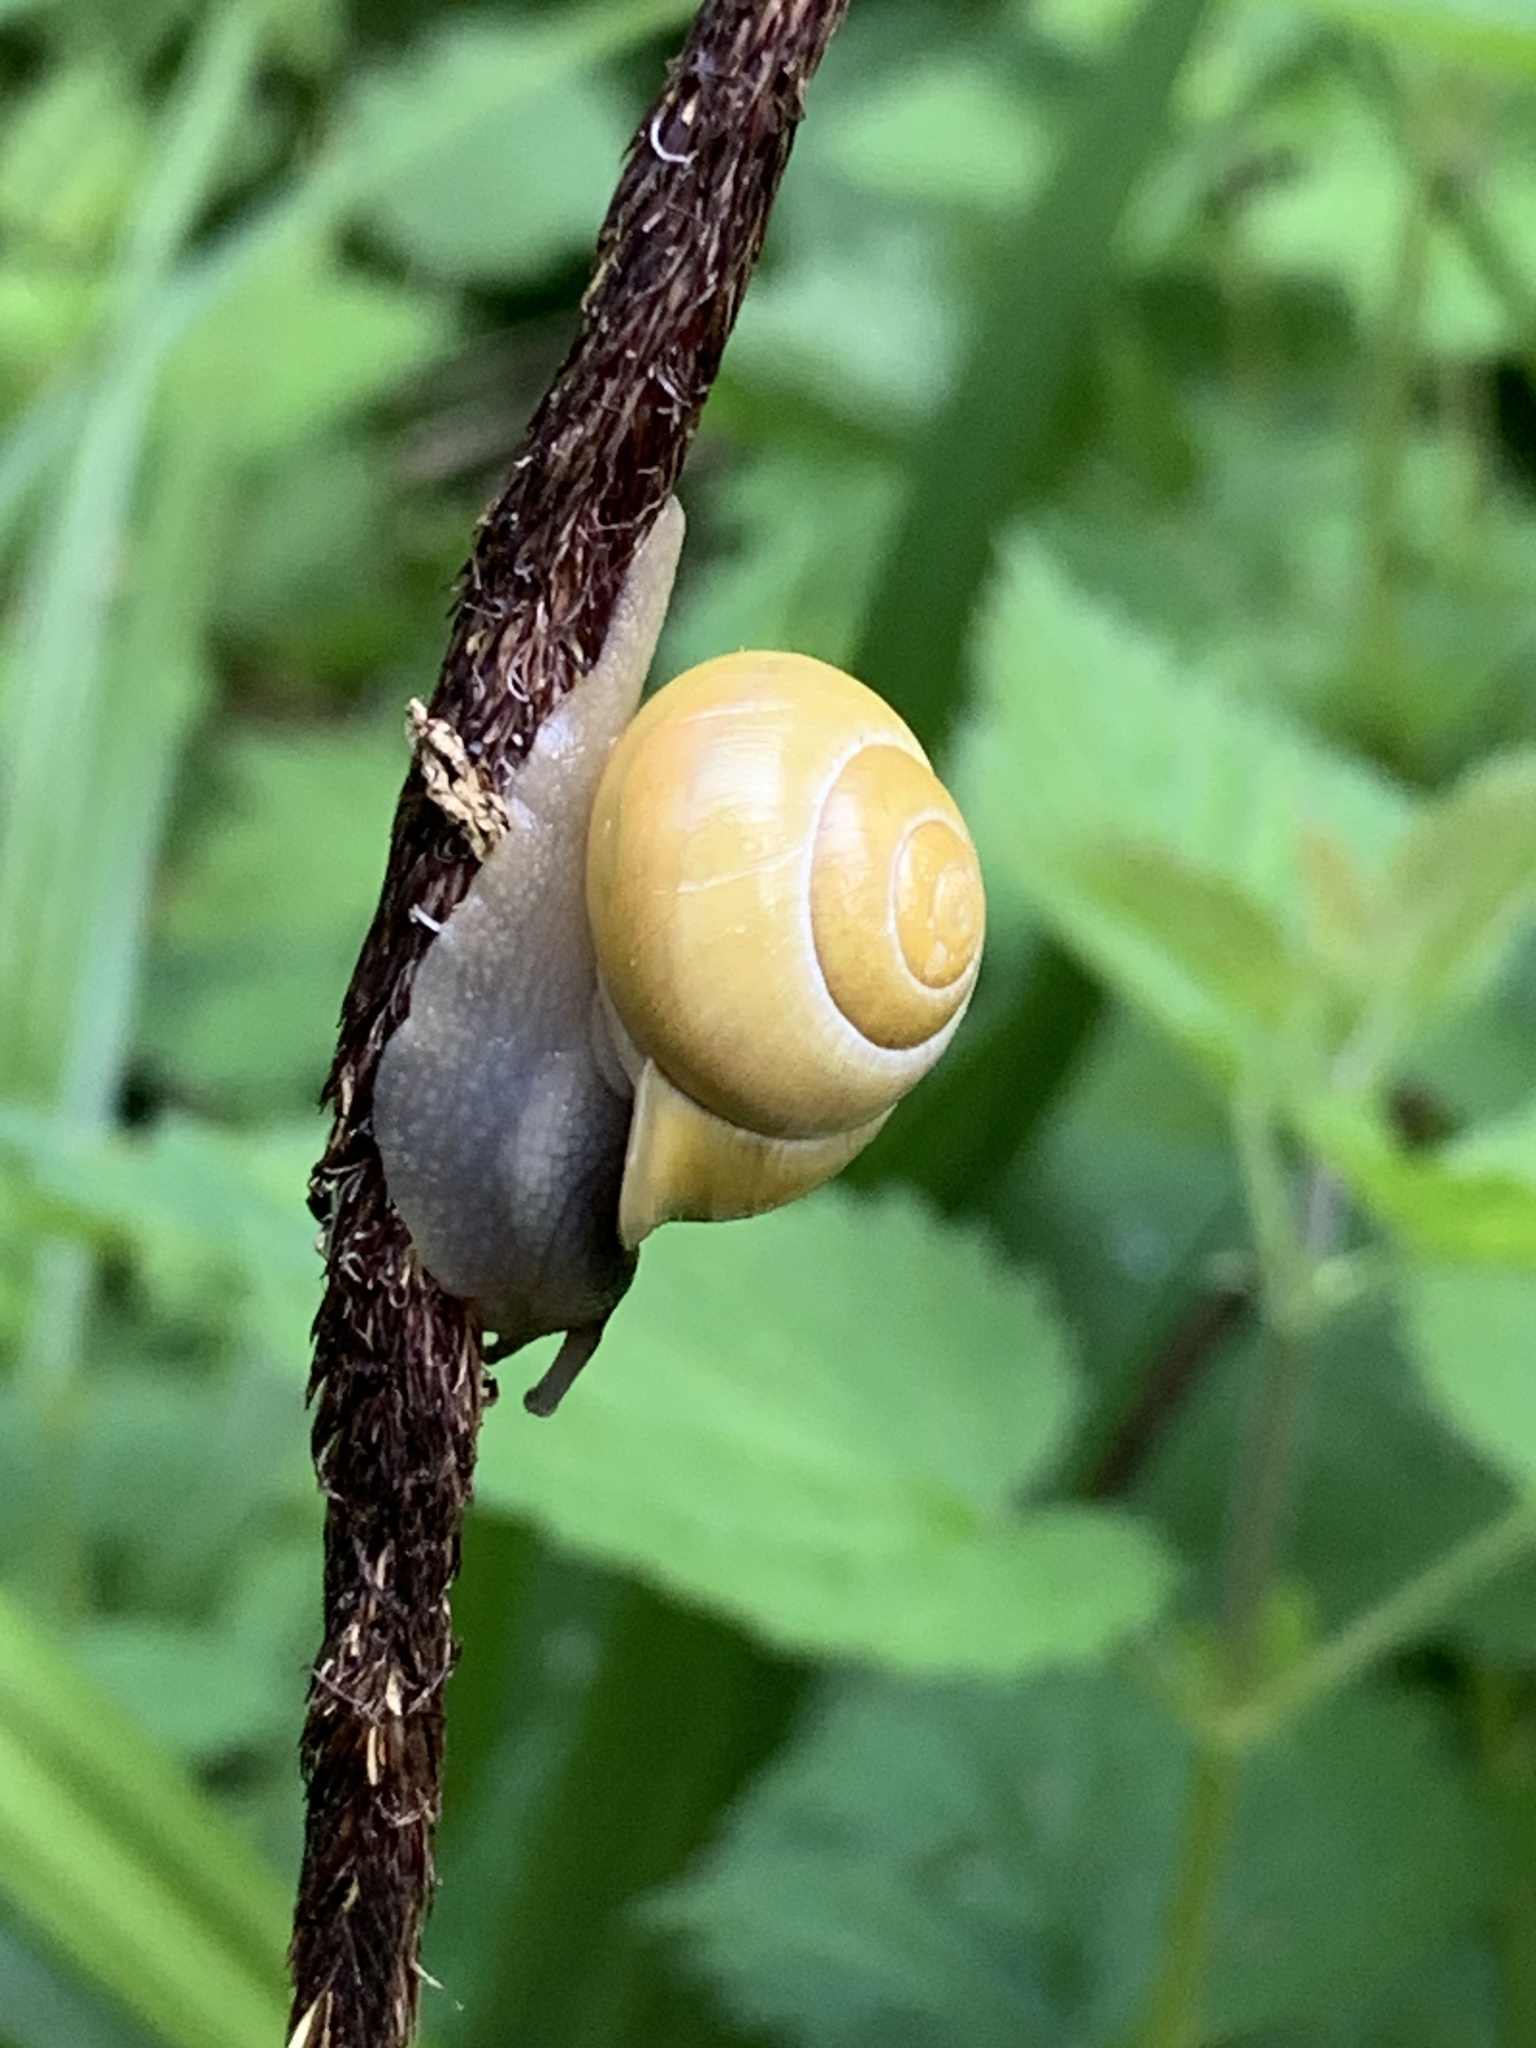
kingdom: Animalia
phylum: Mollusca
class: Gastropoda
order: Stylommatophora
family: Helicidae
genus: Cepaea
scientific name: Cepaea hortensis
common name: White-lip gardensnail
